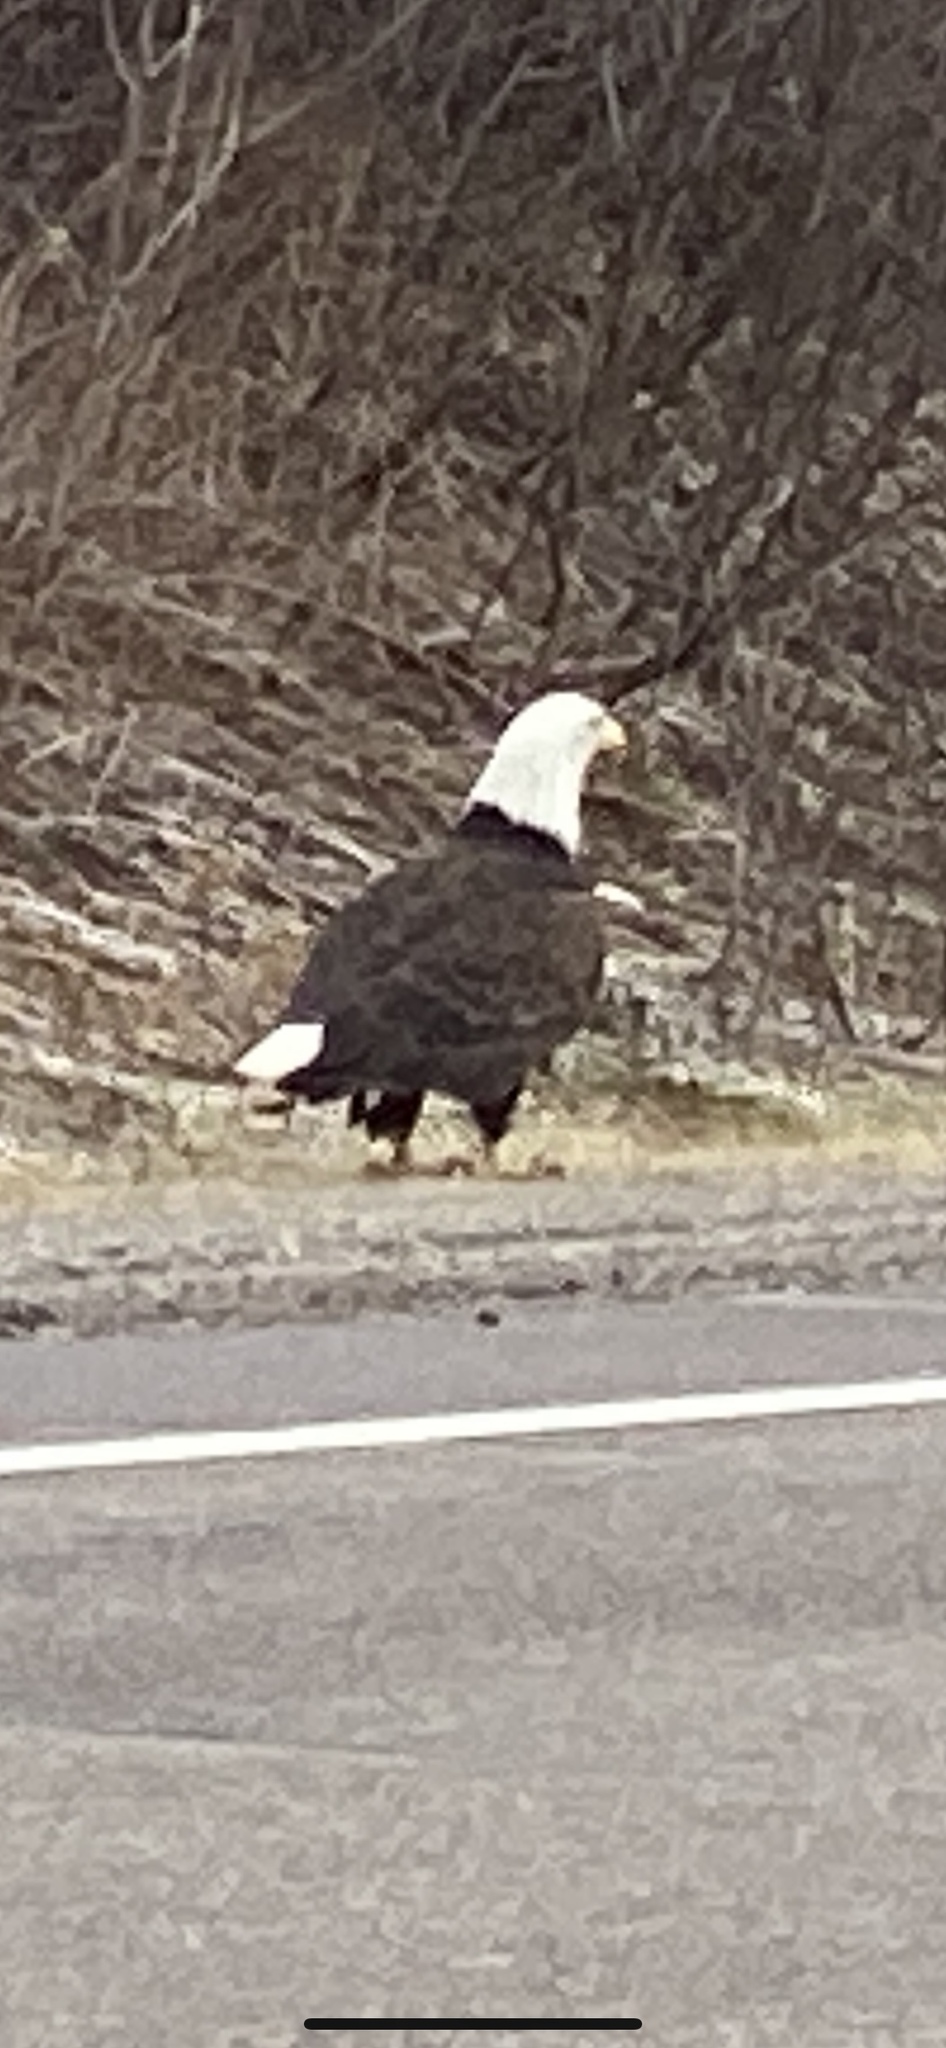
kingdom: Animalia
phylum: Chordata
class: Aves
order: Accipitriformes
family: Accipitridae
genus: Haliaeetus
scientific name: Haliaeetus leucocephalus
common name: Bald eagle
